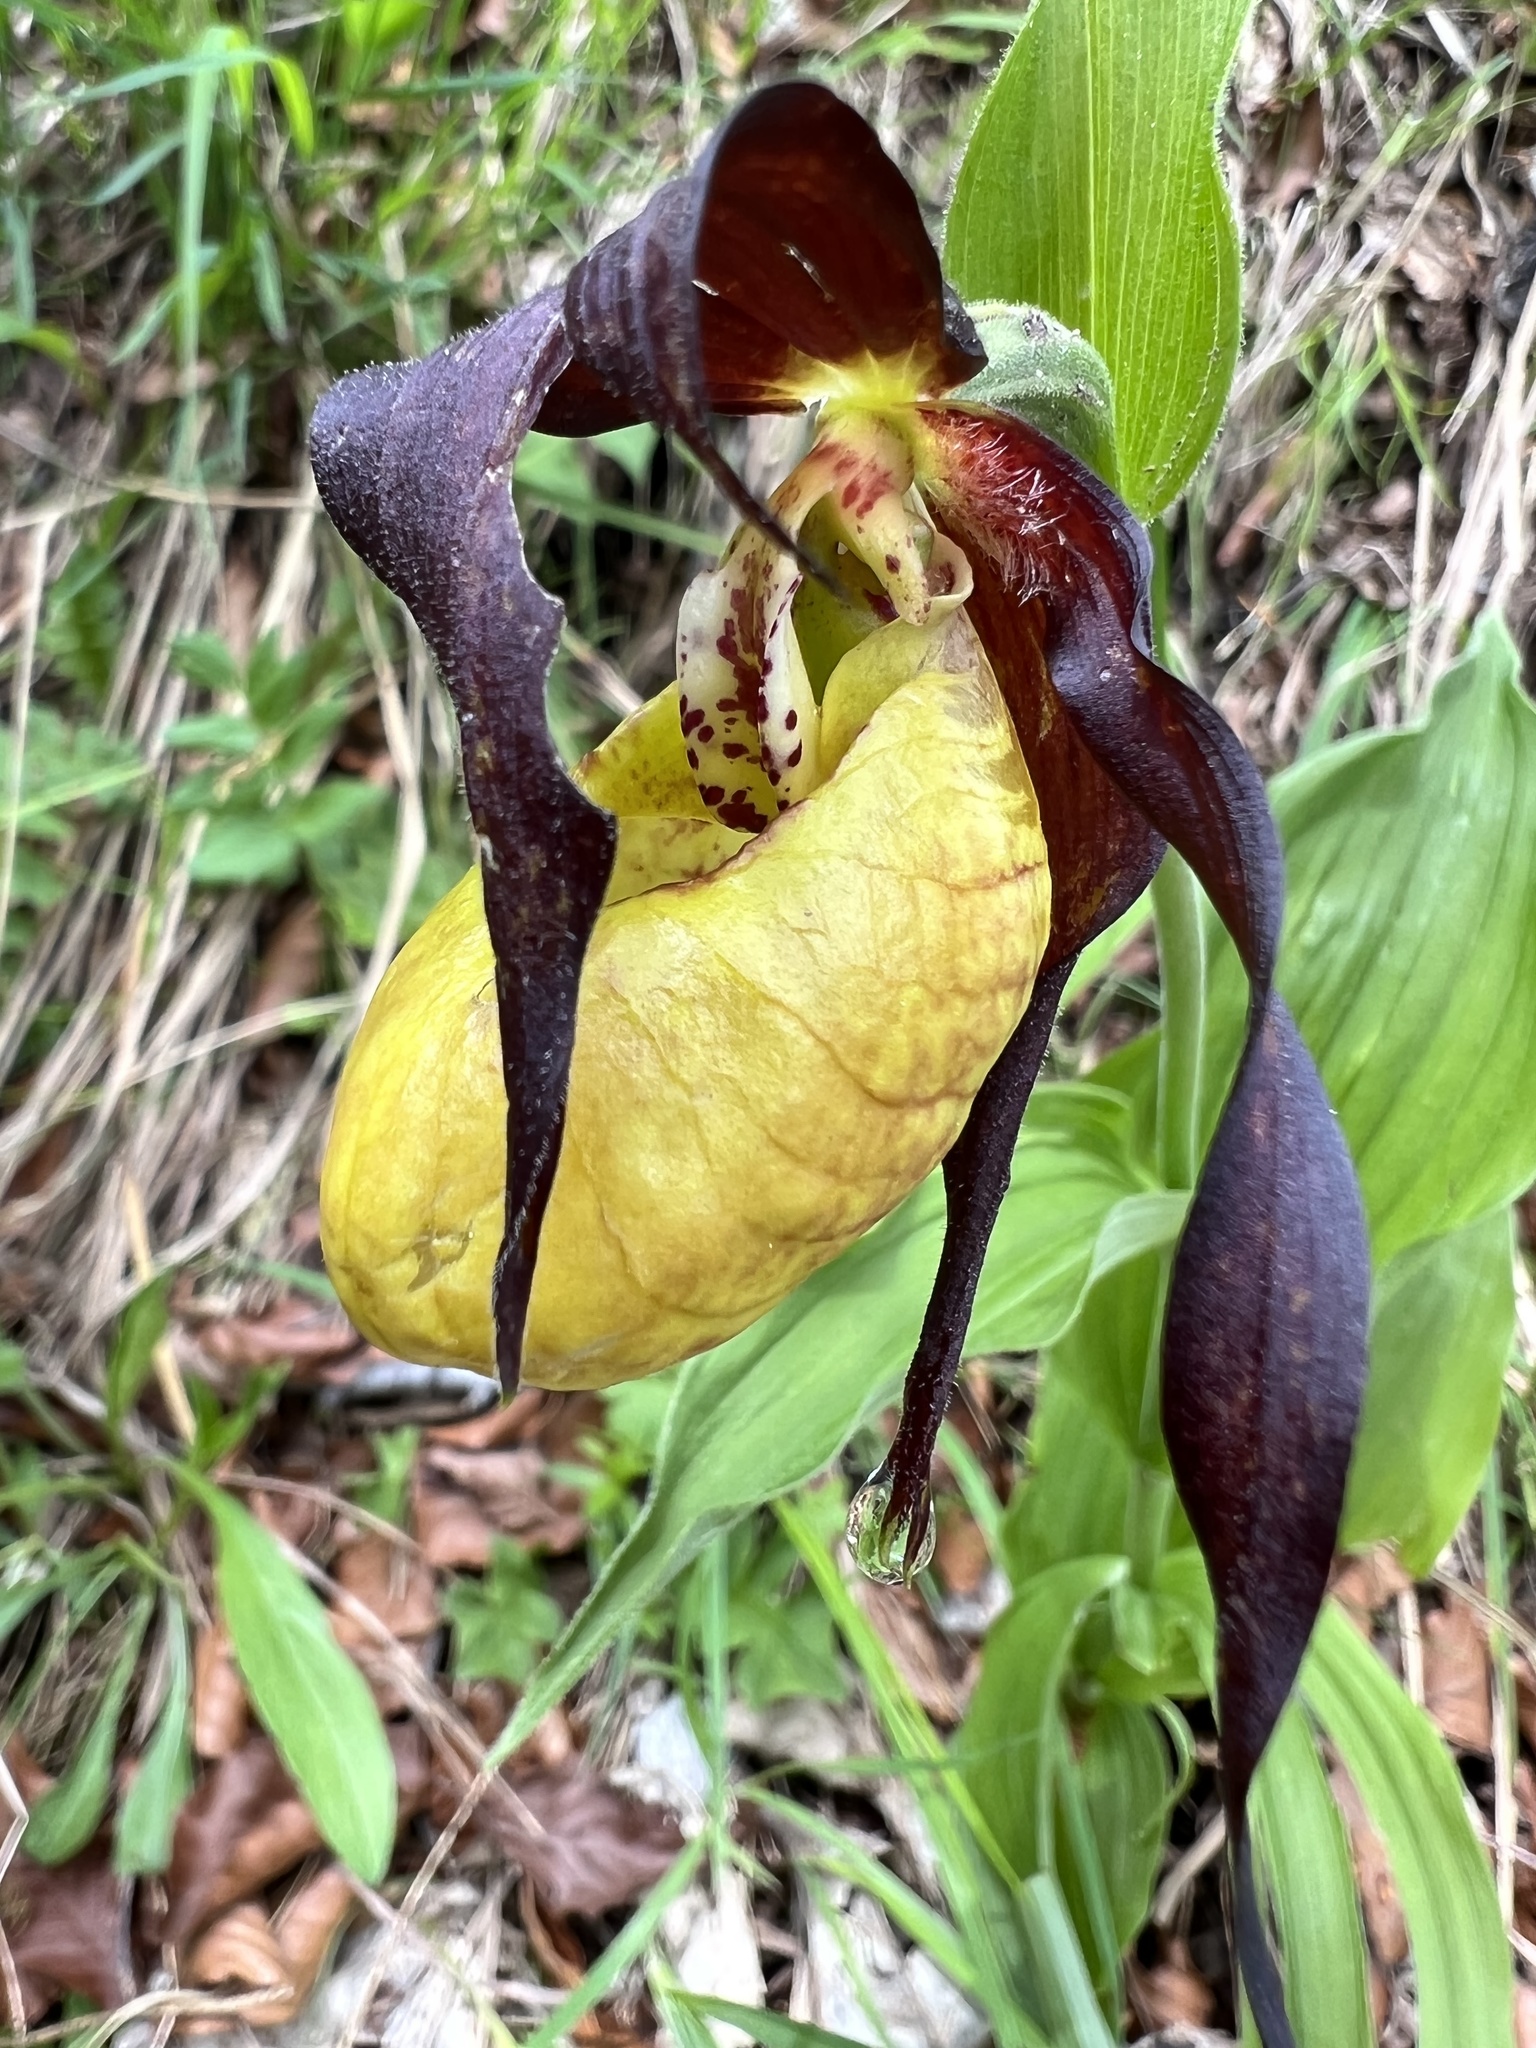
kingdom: Plantae
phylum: Tracheophyta
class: Liliopsida
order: Asparagales
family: Orchidaceae
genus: Cypripedium
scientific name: Cypripedium calceolus
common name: Lady's-slipper
